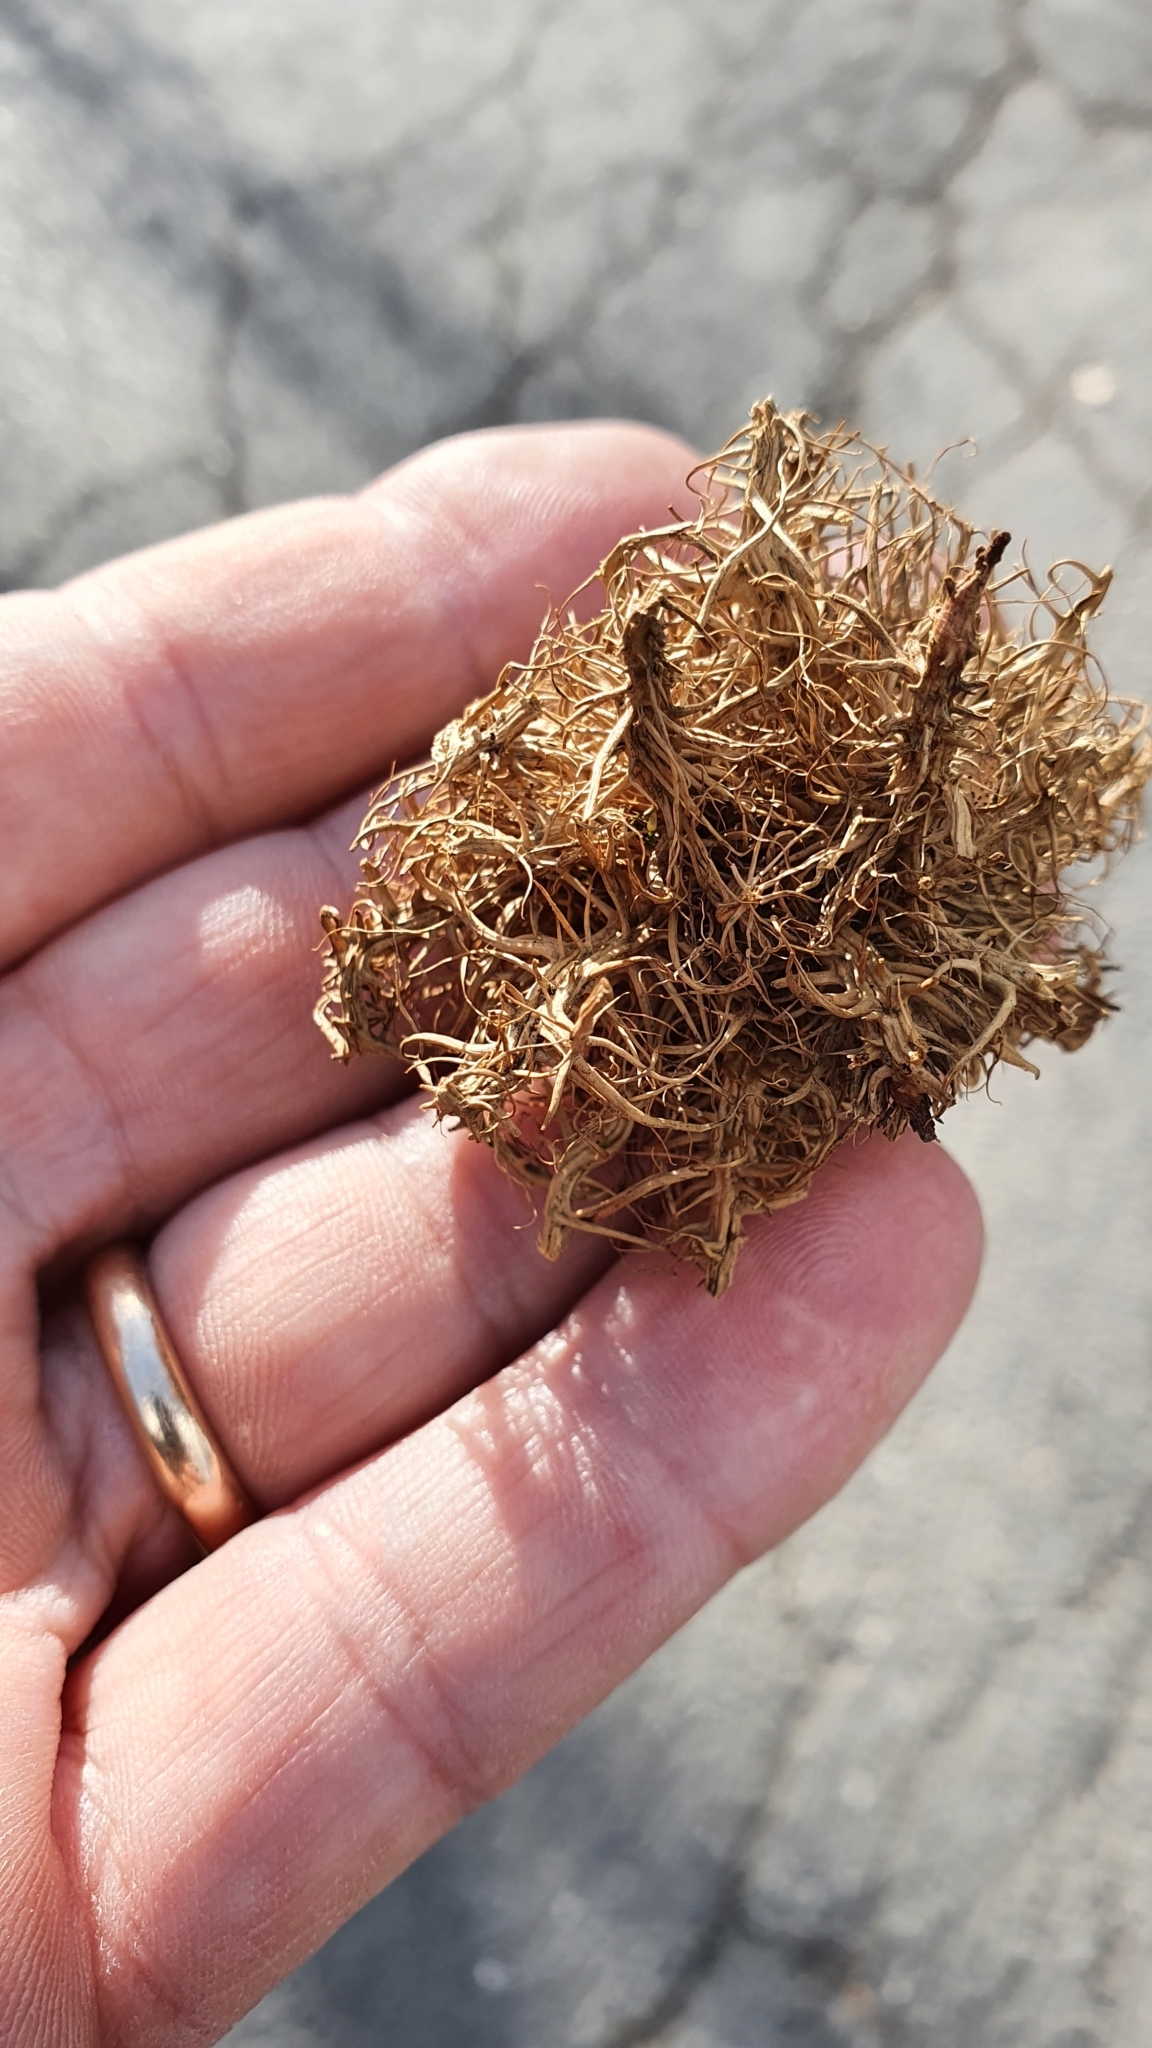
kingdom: Animalia
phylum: Arthropoda
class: Insecta
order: Hymenoptera
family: Cynipidae
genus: Andricus
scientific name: Andricus caputmedusae
